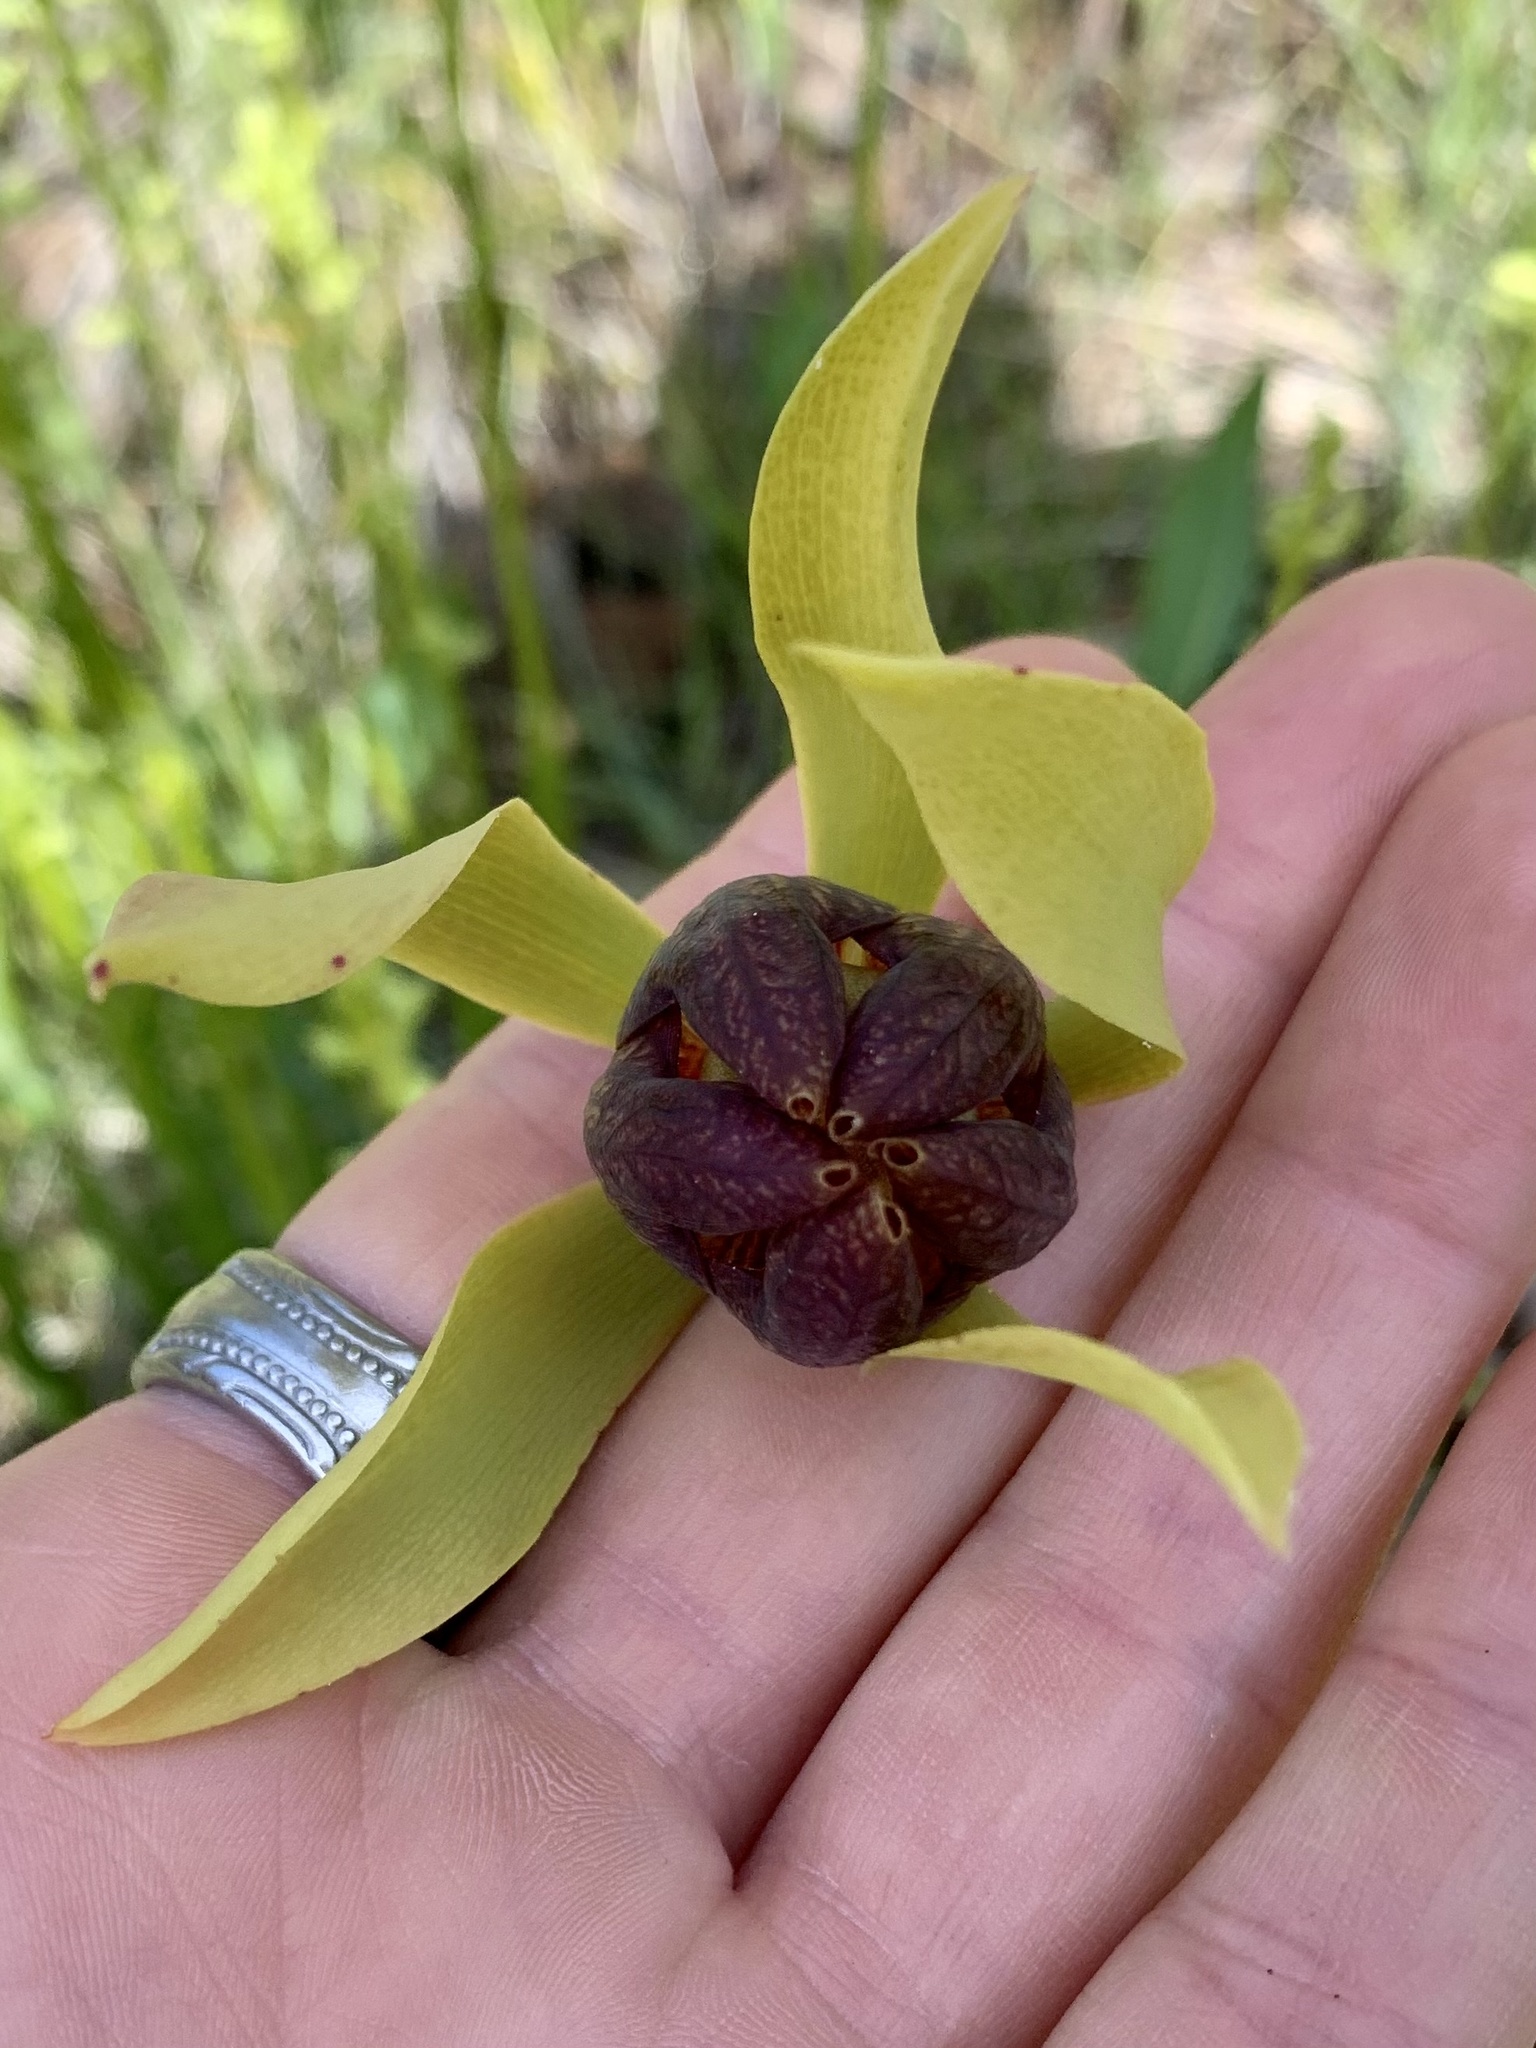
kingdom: Plantae
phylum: Tracheophyta
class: Magnoliopsida
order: Ericales
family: Sarraceniaceae
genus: Darlingtonia
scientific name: Darlingtonia californica
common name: California pitcher plant
